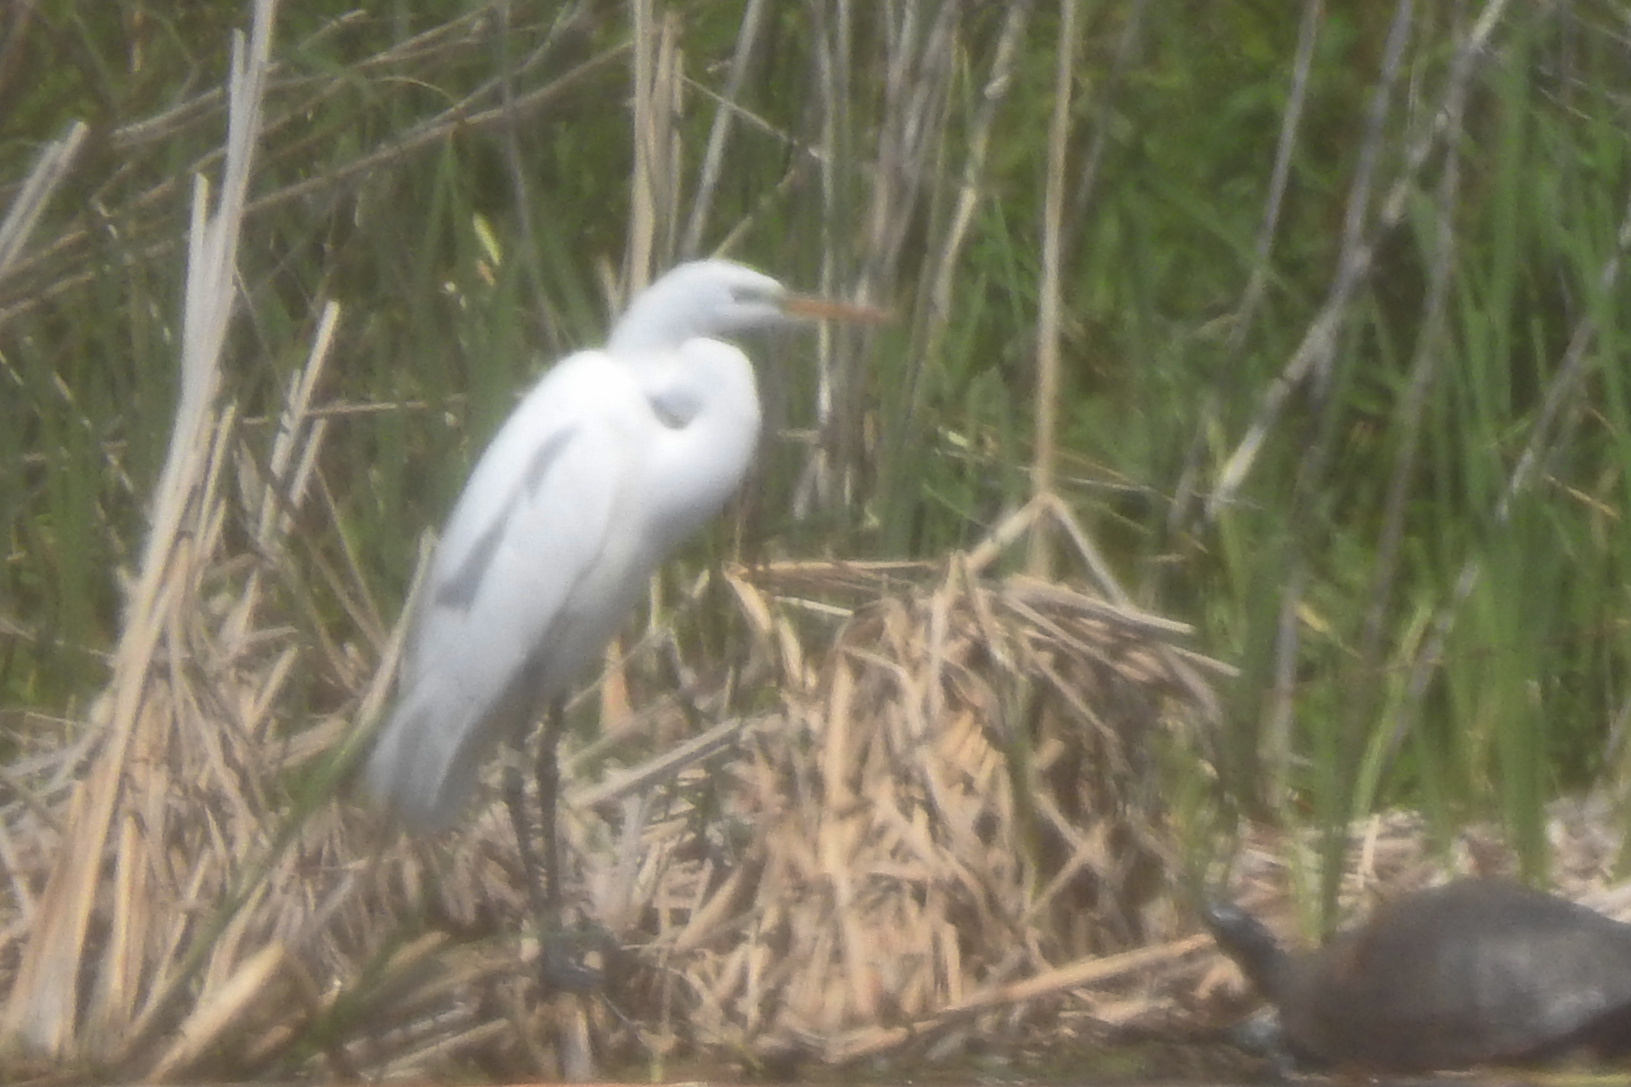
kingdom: Animalia
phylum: Chordata
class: Aves
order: Pelecaniformes
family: Ardeidae
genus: Ardea
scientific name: Ardea alba
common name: Great egret
